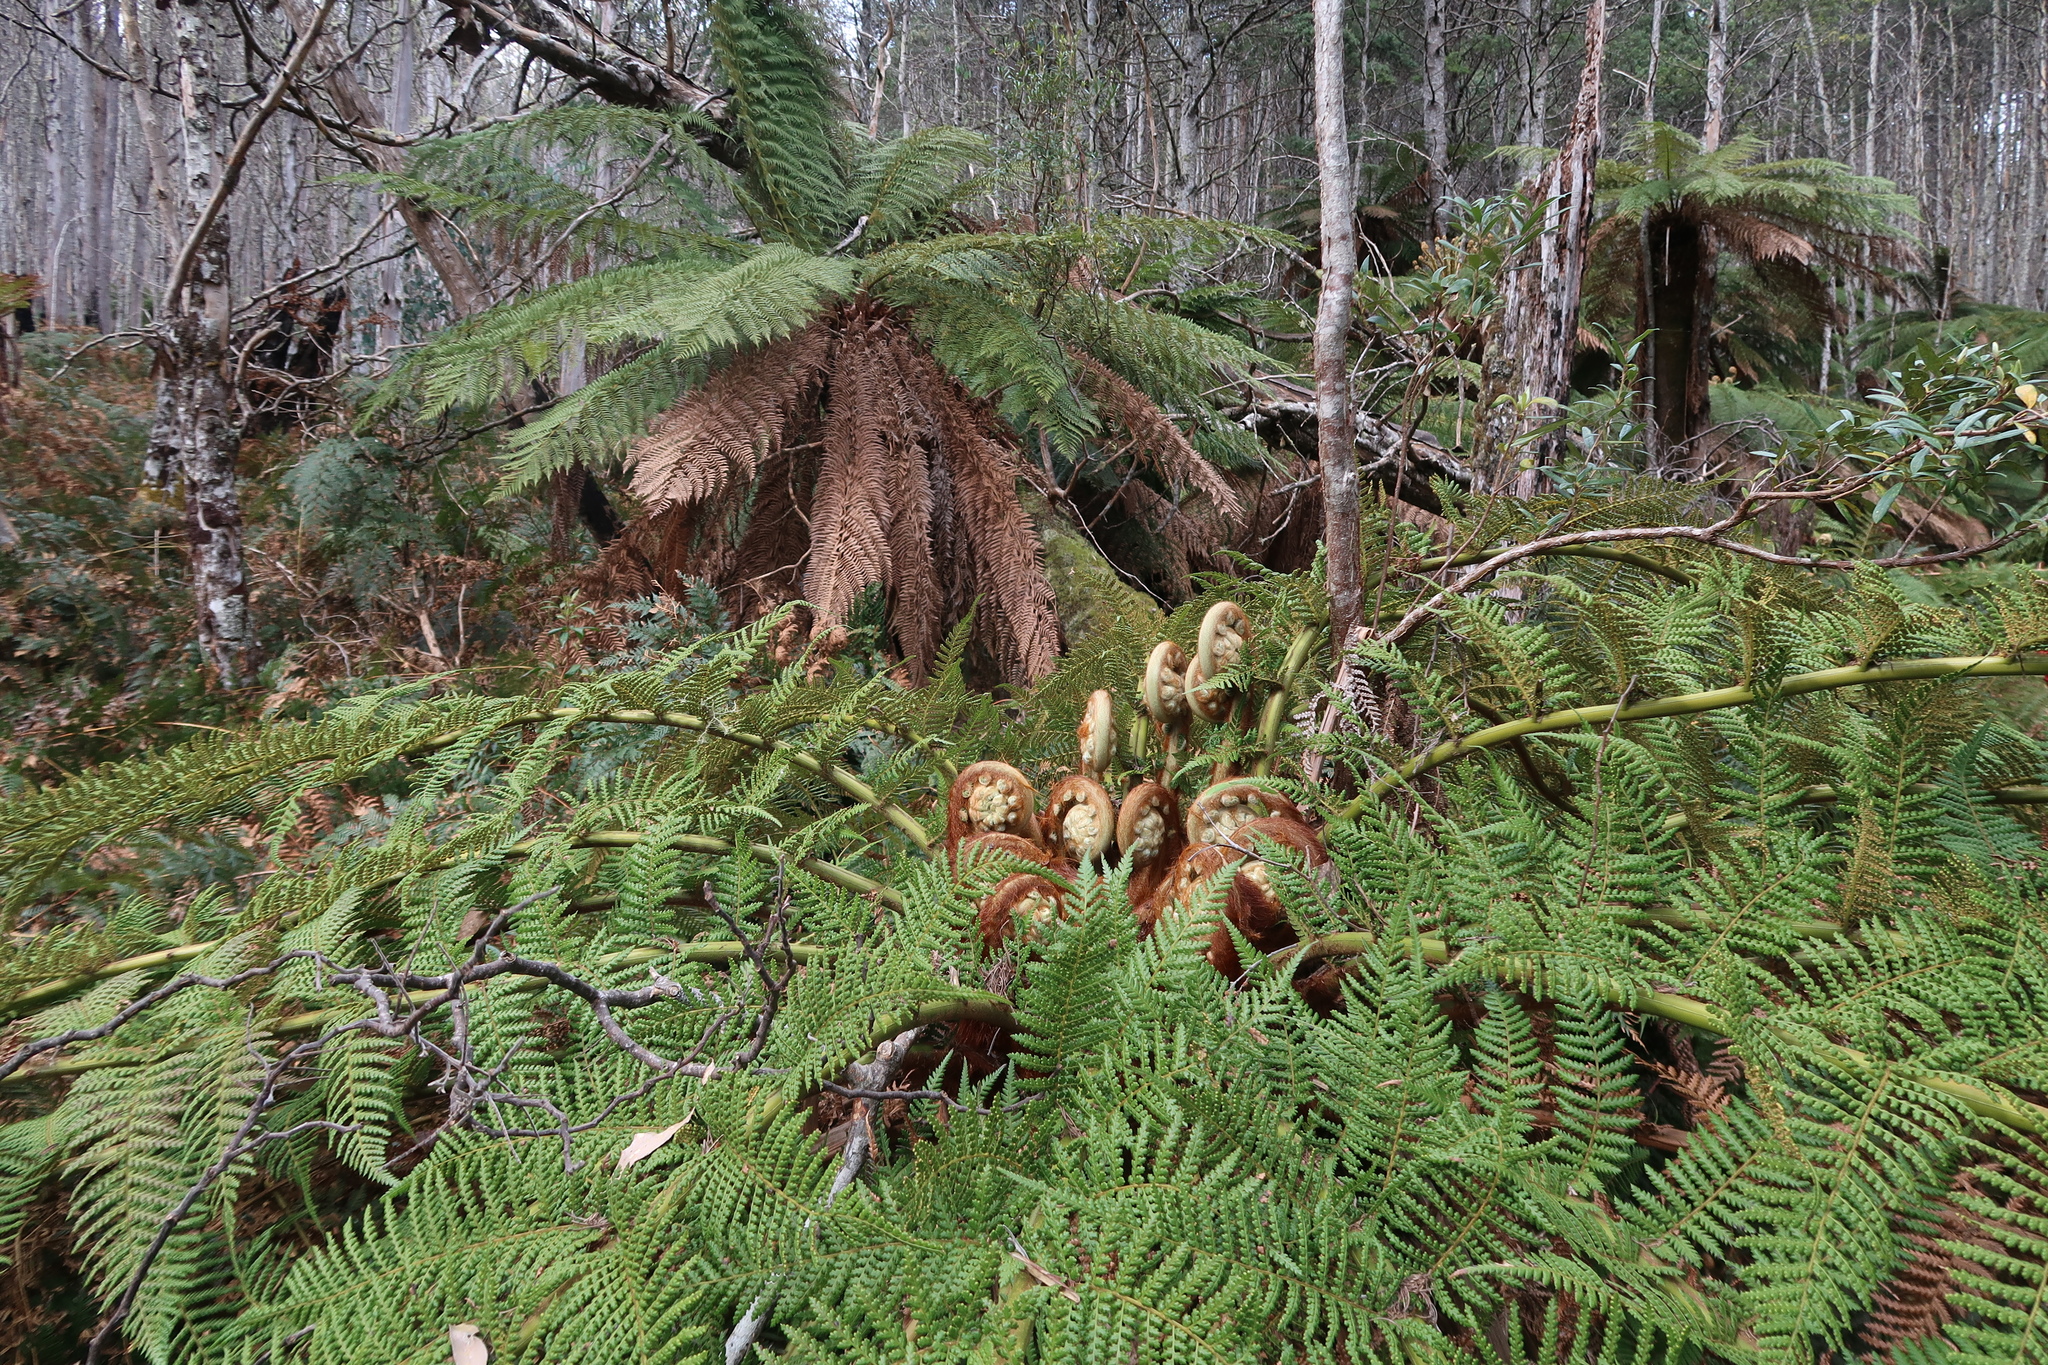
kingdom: Plantae
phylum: Tracheophyta
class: Polypodiopsida
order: Cyatheales
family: Dicksoniaceae
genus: Dicksonia
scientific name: Dicksonia antarctica
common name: Australian treefern
